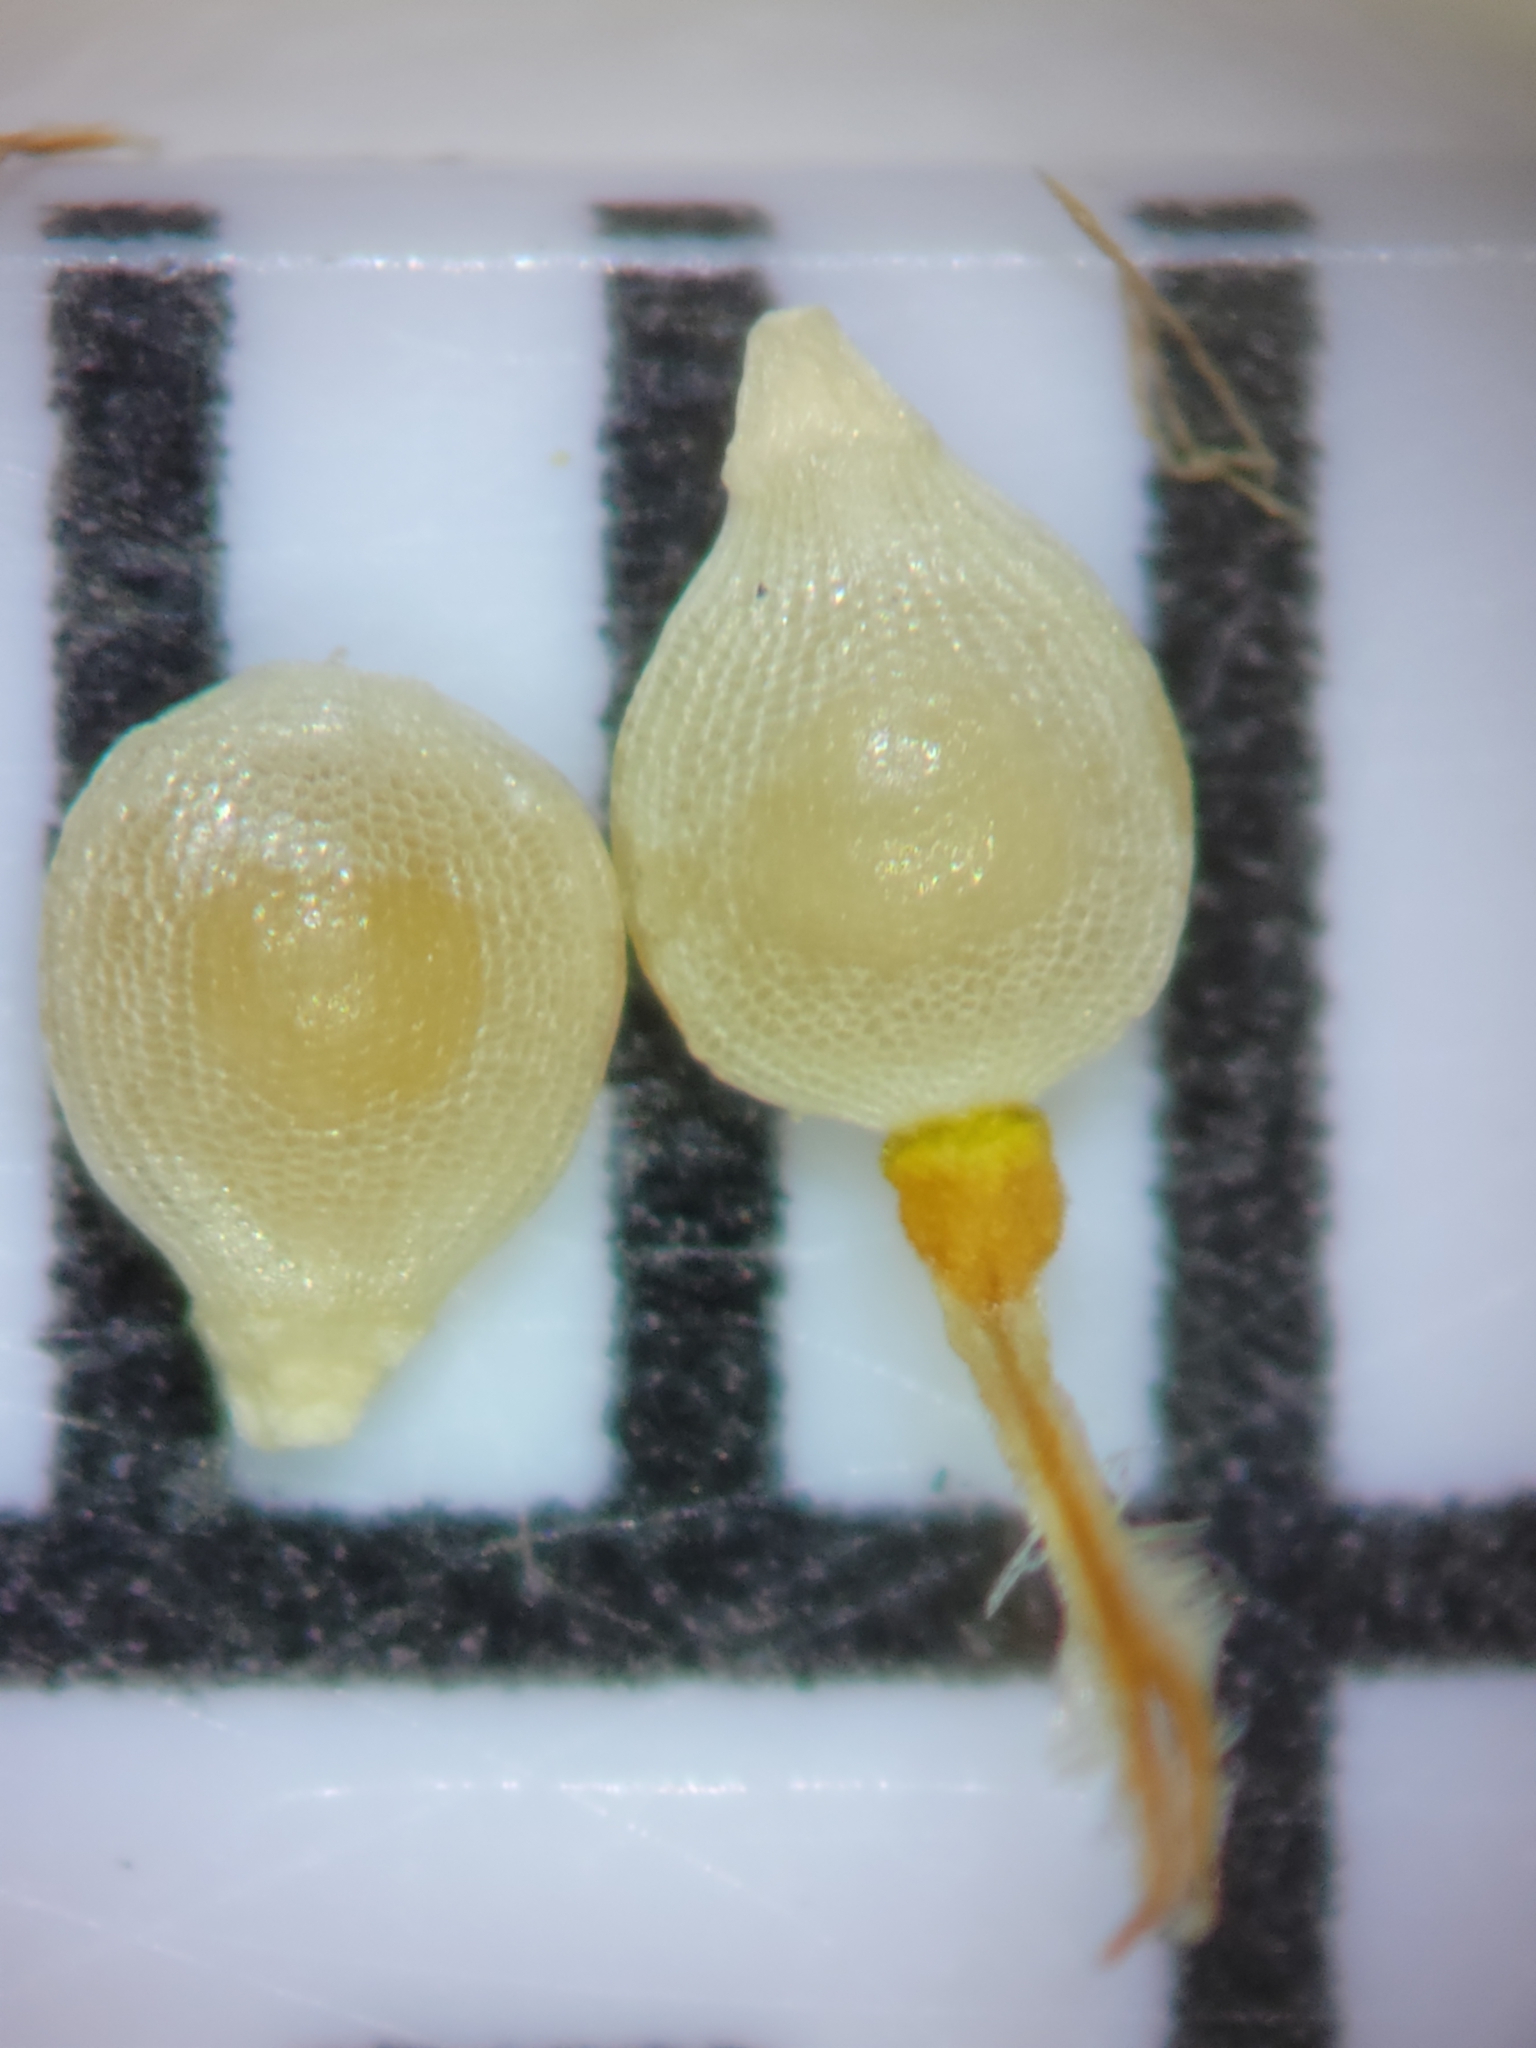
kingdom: Plantae
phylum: Tracheophyta
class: Liliopsida
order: Poales
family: Cyperaceae
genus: Fimbristylis
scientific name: Fimbristylis schoenoides
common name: Ditch fimbry
